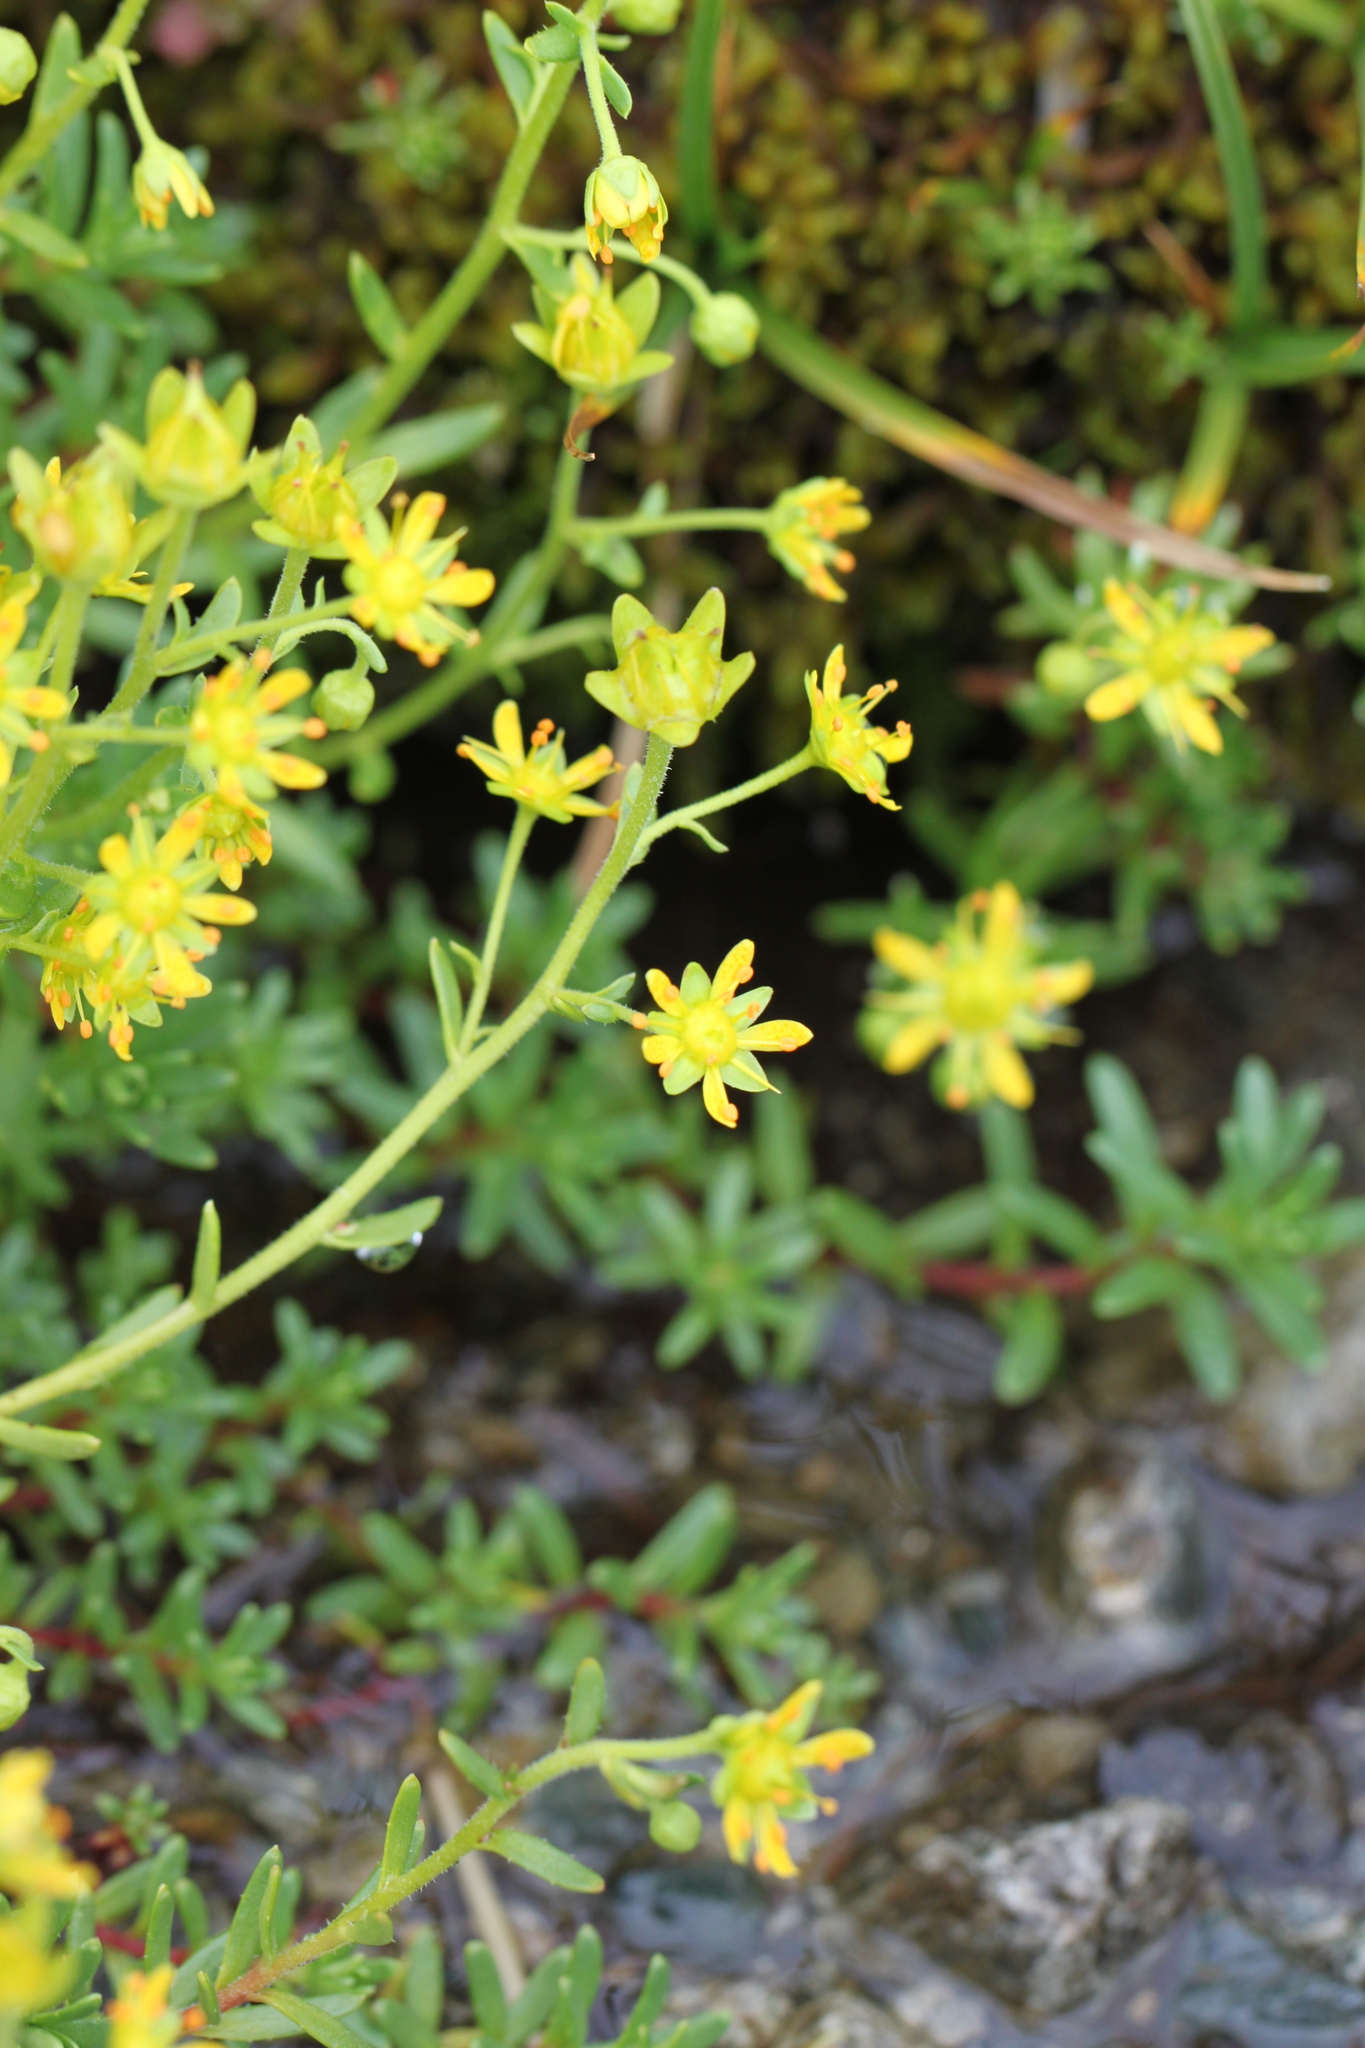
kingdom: Plantae
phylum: Tracheophyta
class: Magnoliopsida
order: Saxifragales
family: Saxifragaceae
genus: Saxifraga
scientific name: Saxifraga aizoides
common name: Yellow mountain saxifrage
